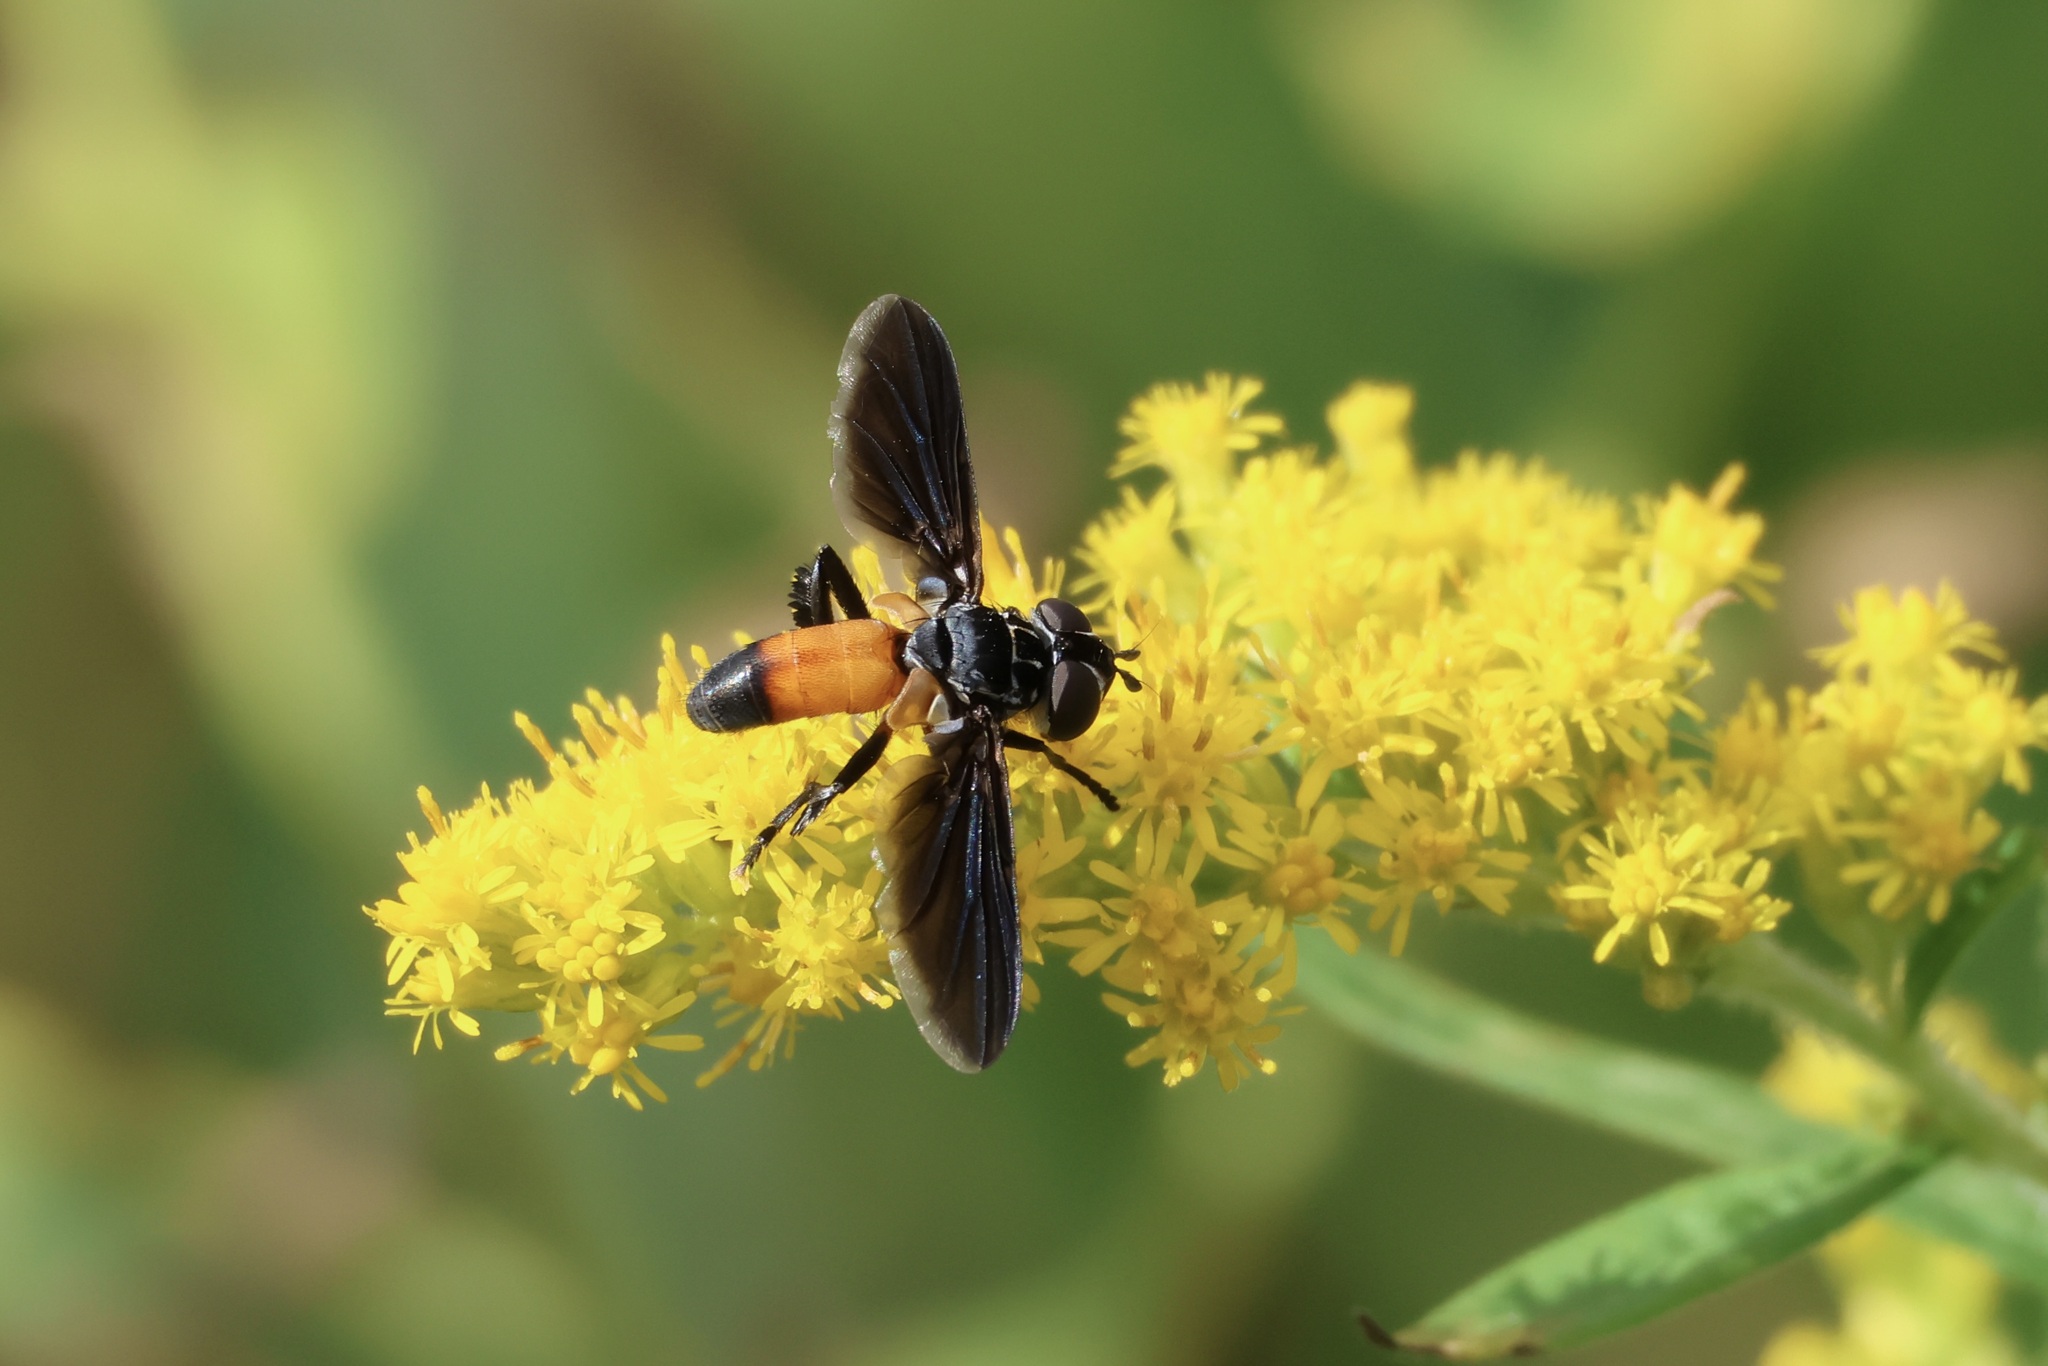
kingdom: Animalia
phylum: Arthropoda
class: Insecta
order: Diptera
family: Tachinidae
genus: Trichopoda
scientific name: Trichopoda pennipes
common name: Tachinid fly
